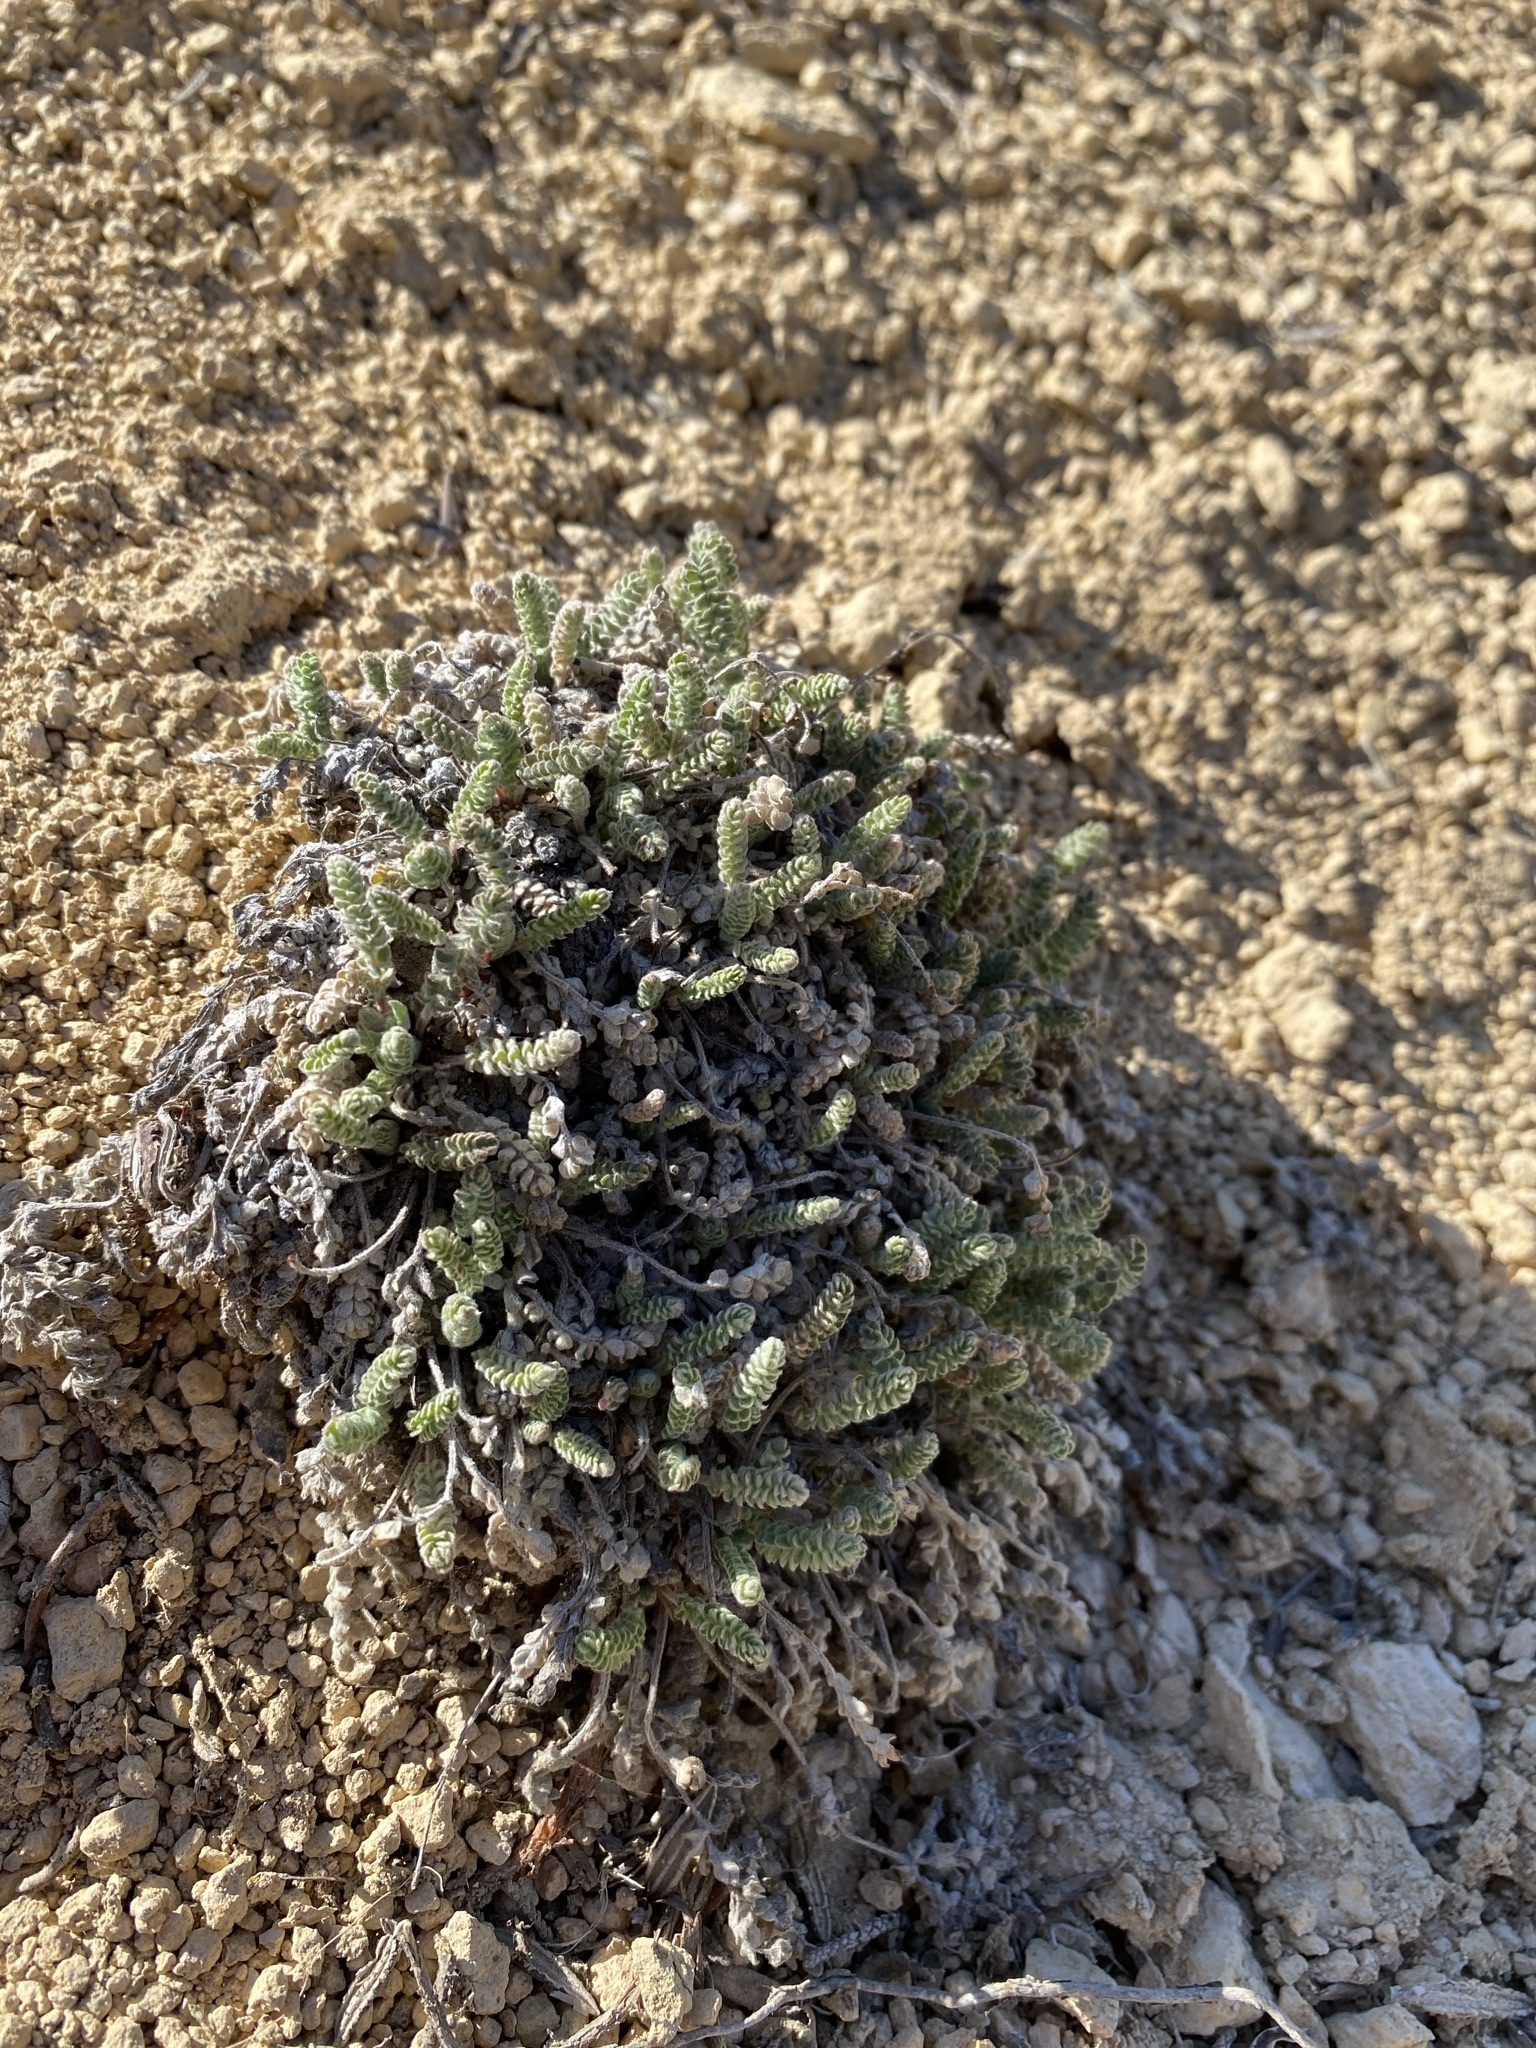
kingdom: Plantae
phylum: Tracheophyta
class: Magnoliopsida
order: Rosales
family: Rosaceae
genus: Potentilla
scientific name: Potentilla rhypara
